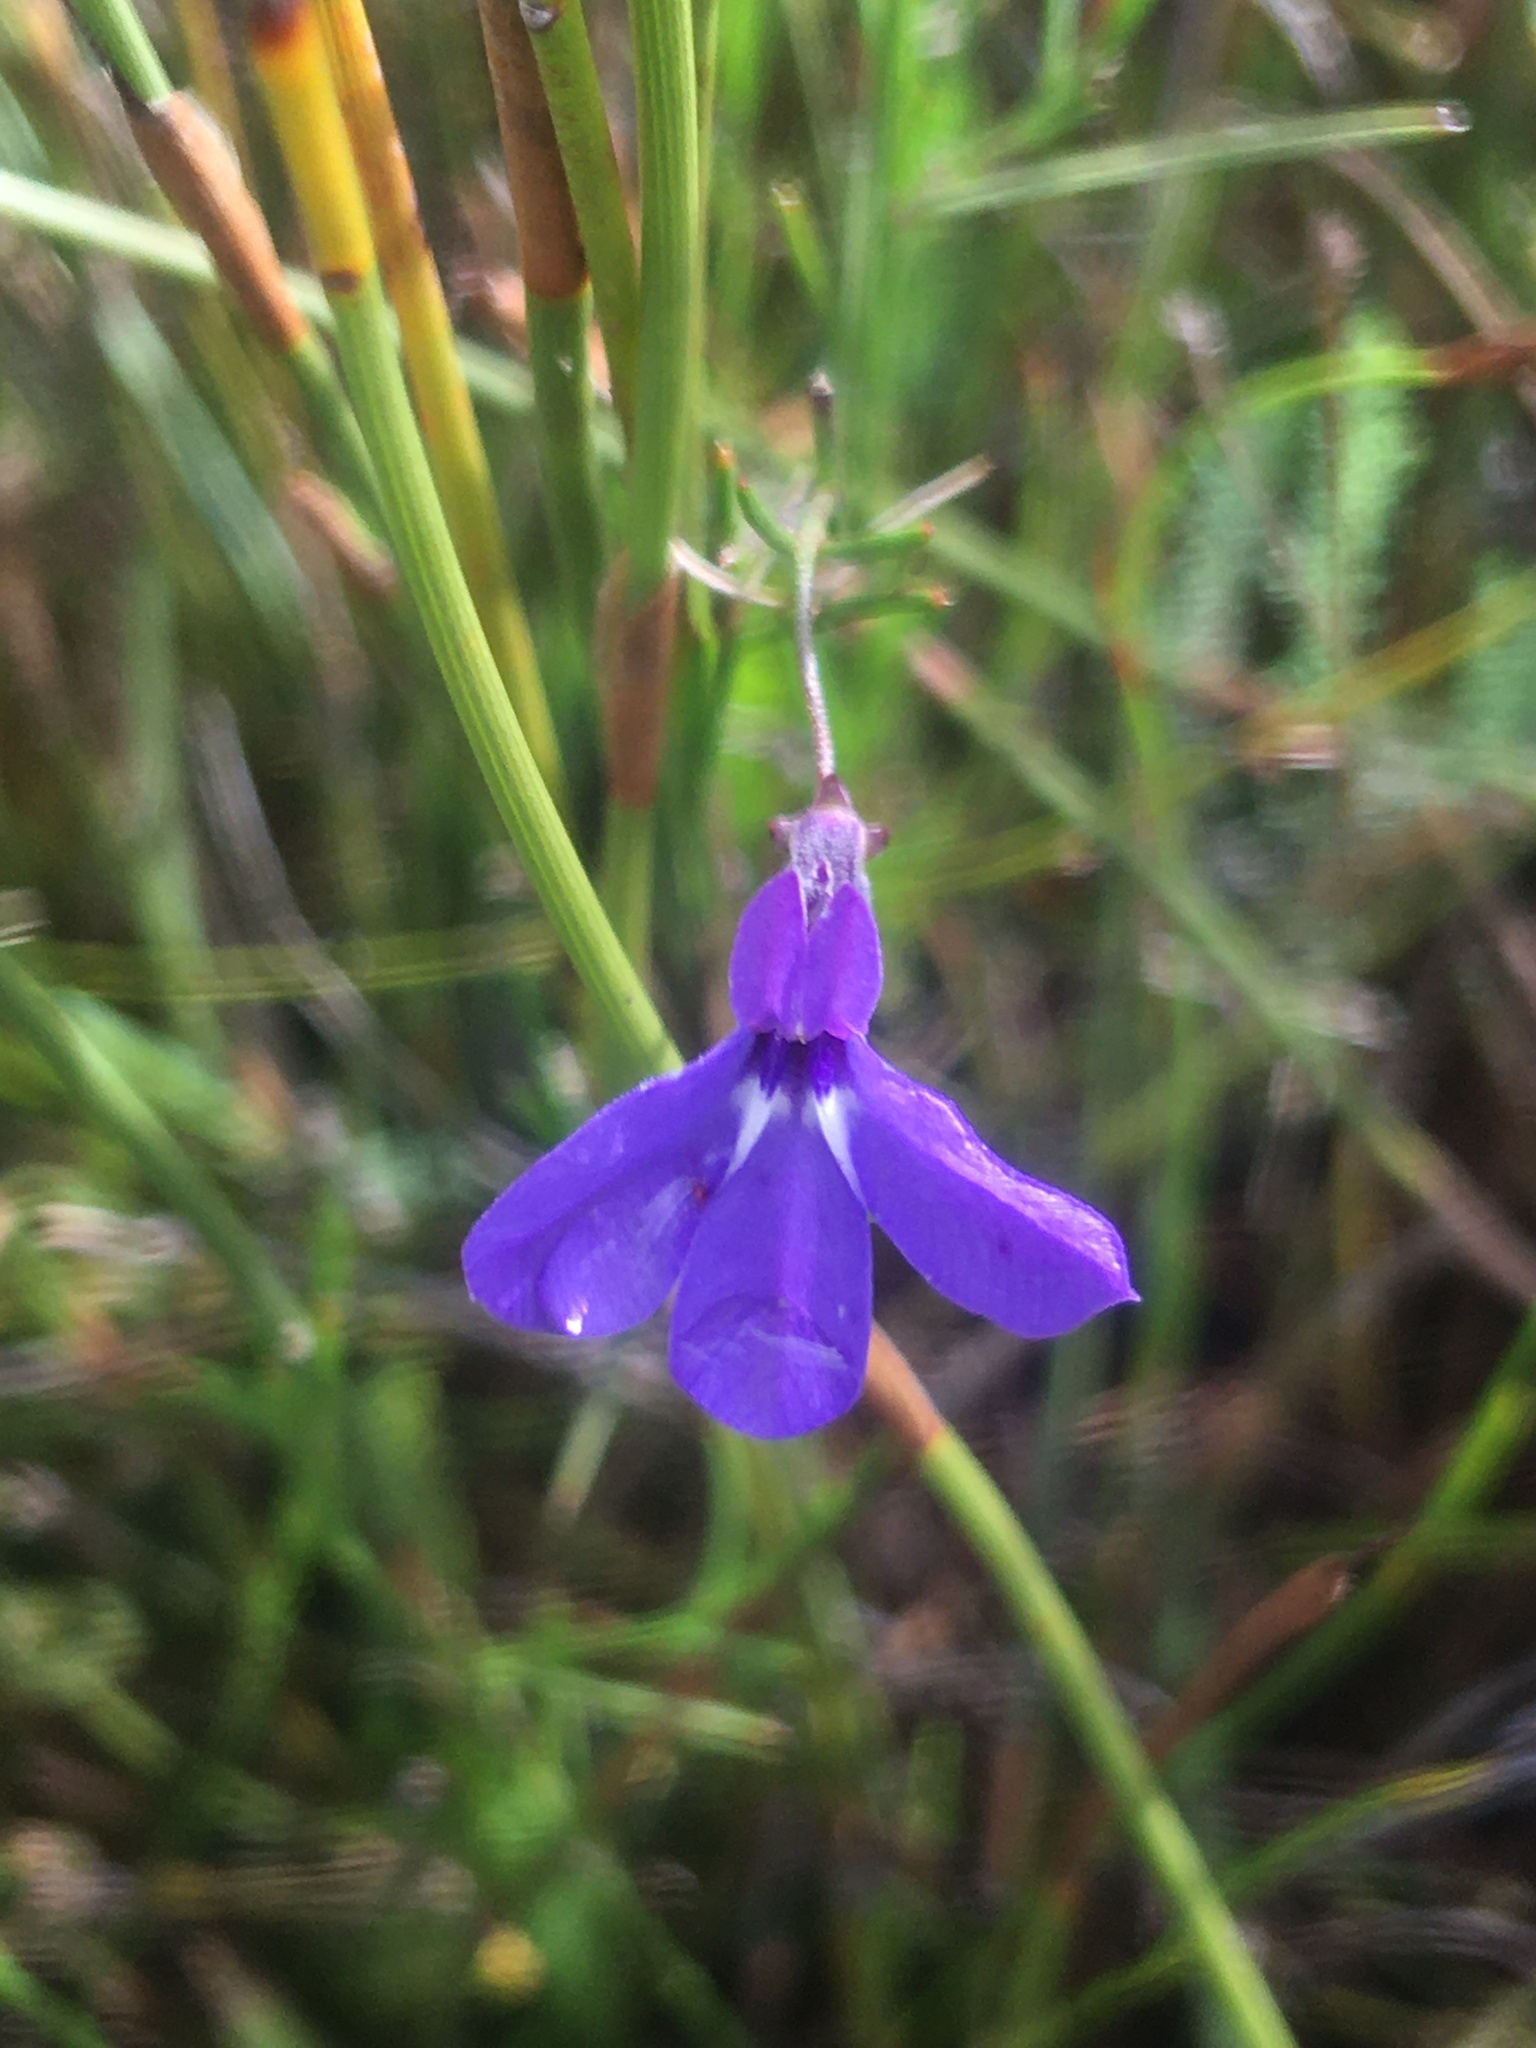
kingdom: Plantae
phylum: Tracheophyta
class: Magnoliopsida
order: Asterales
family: Campanulaceae
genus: Lobelia
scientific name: Lobelia setacea
